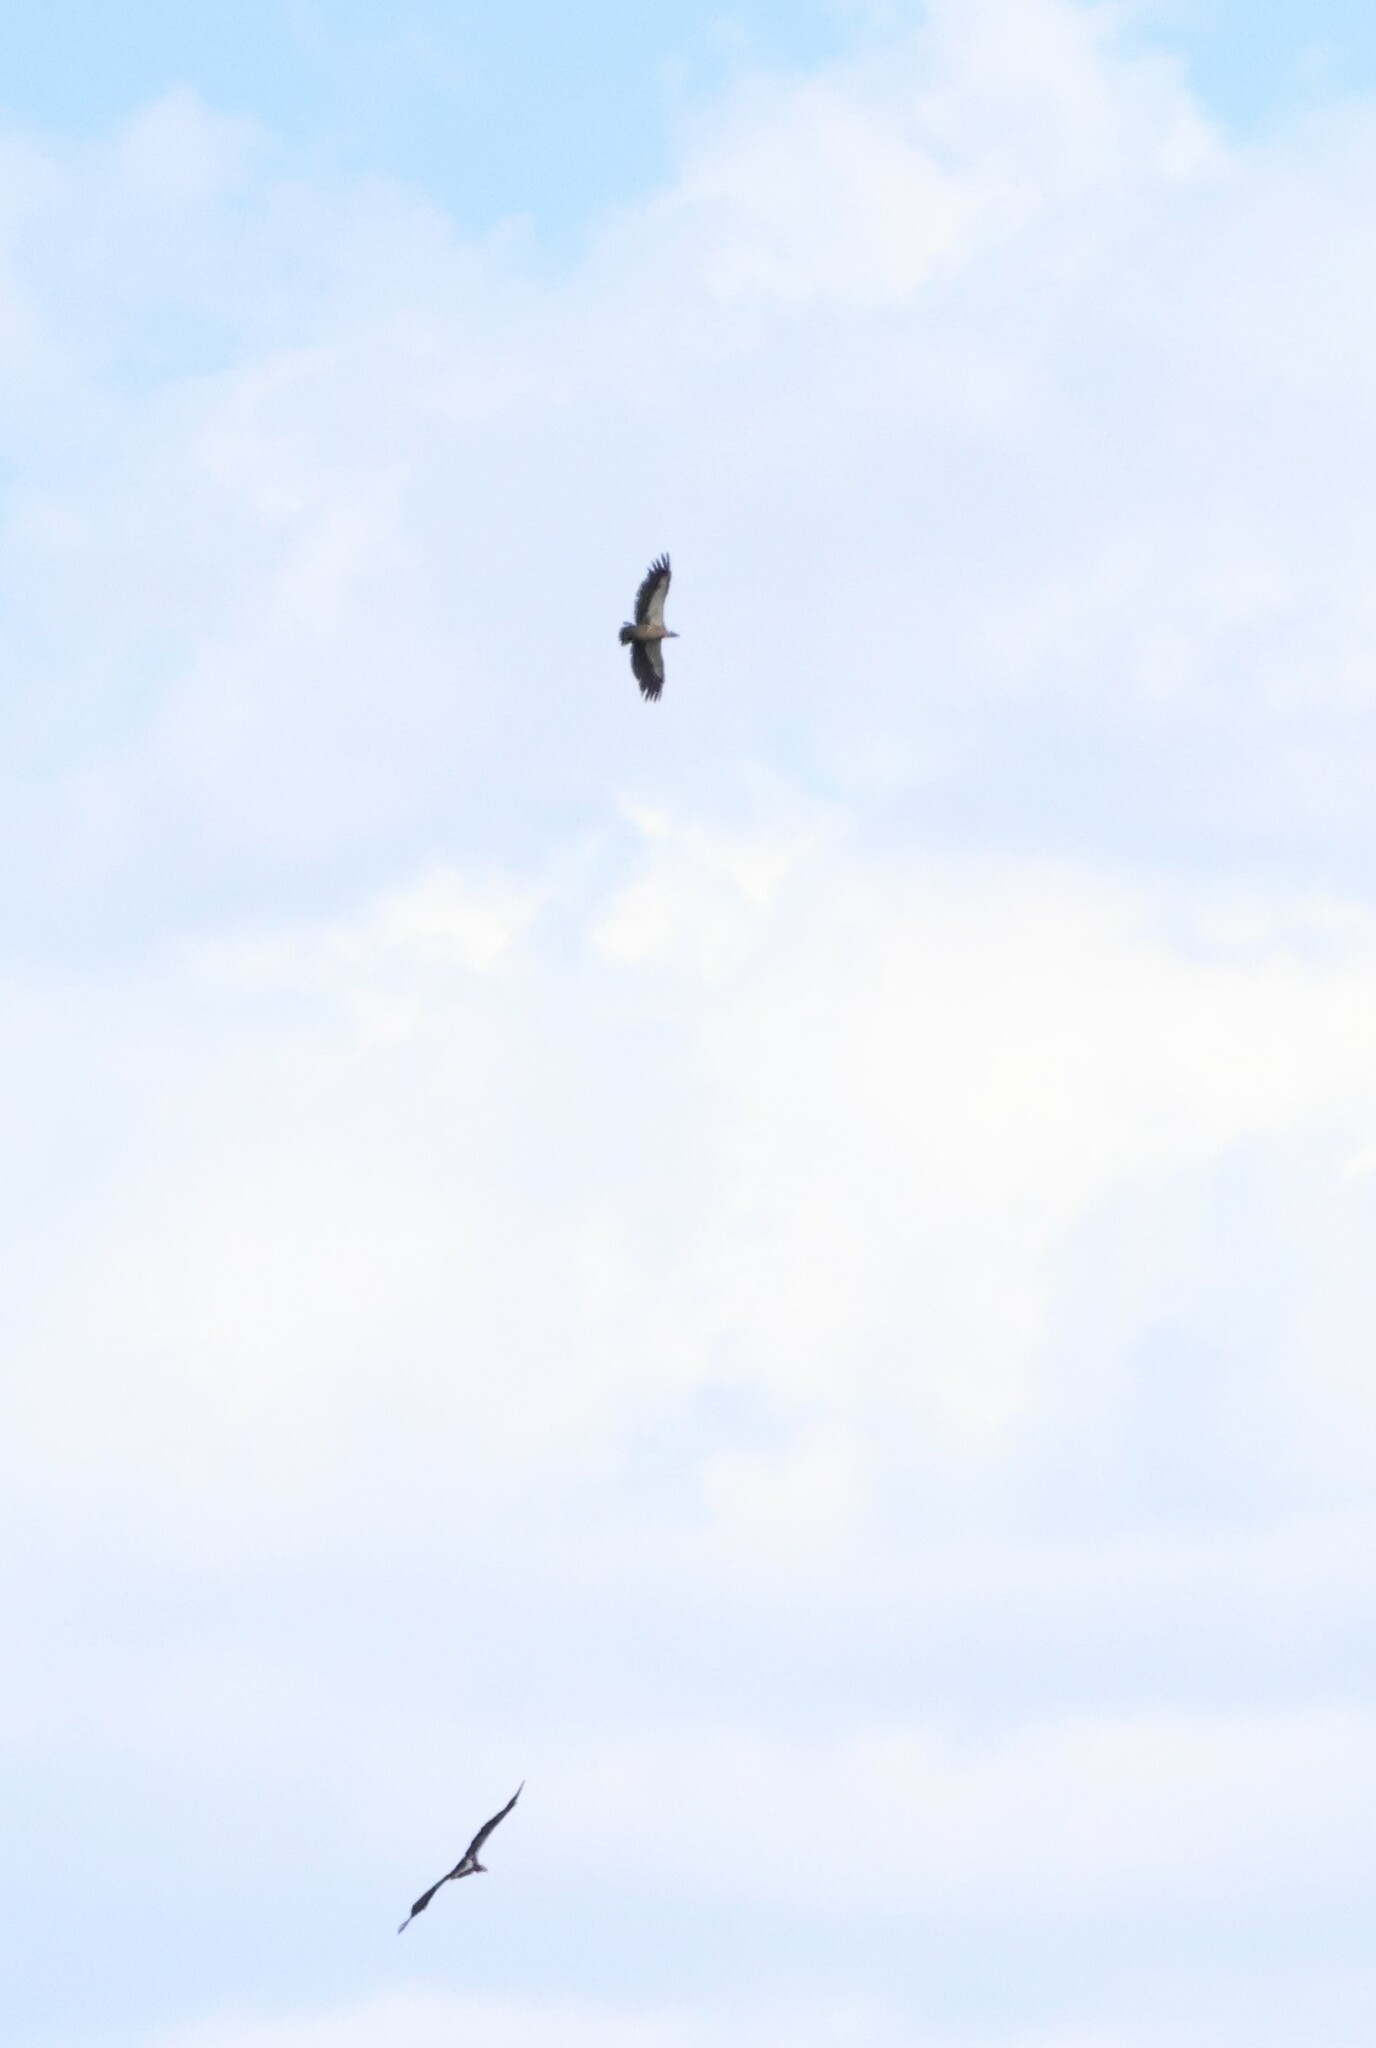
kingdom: Animalia
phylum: Chordata
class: Aves
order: Accipitriformes
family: Accipitridae
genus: Gyps
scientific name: Gyps africanus
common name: White-backed vulture
